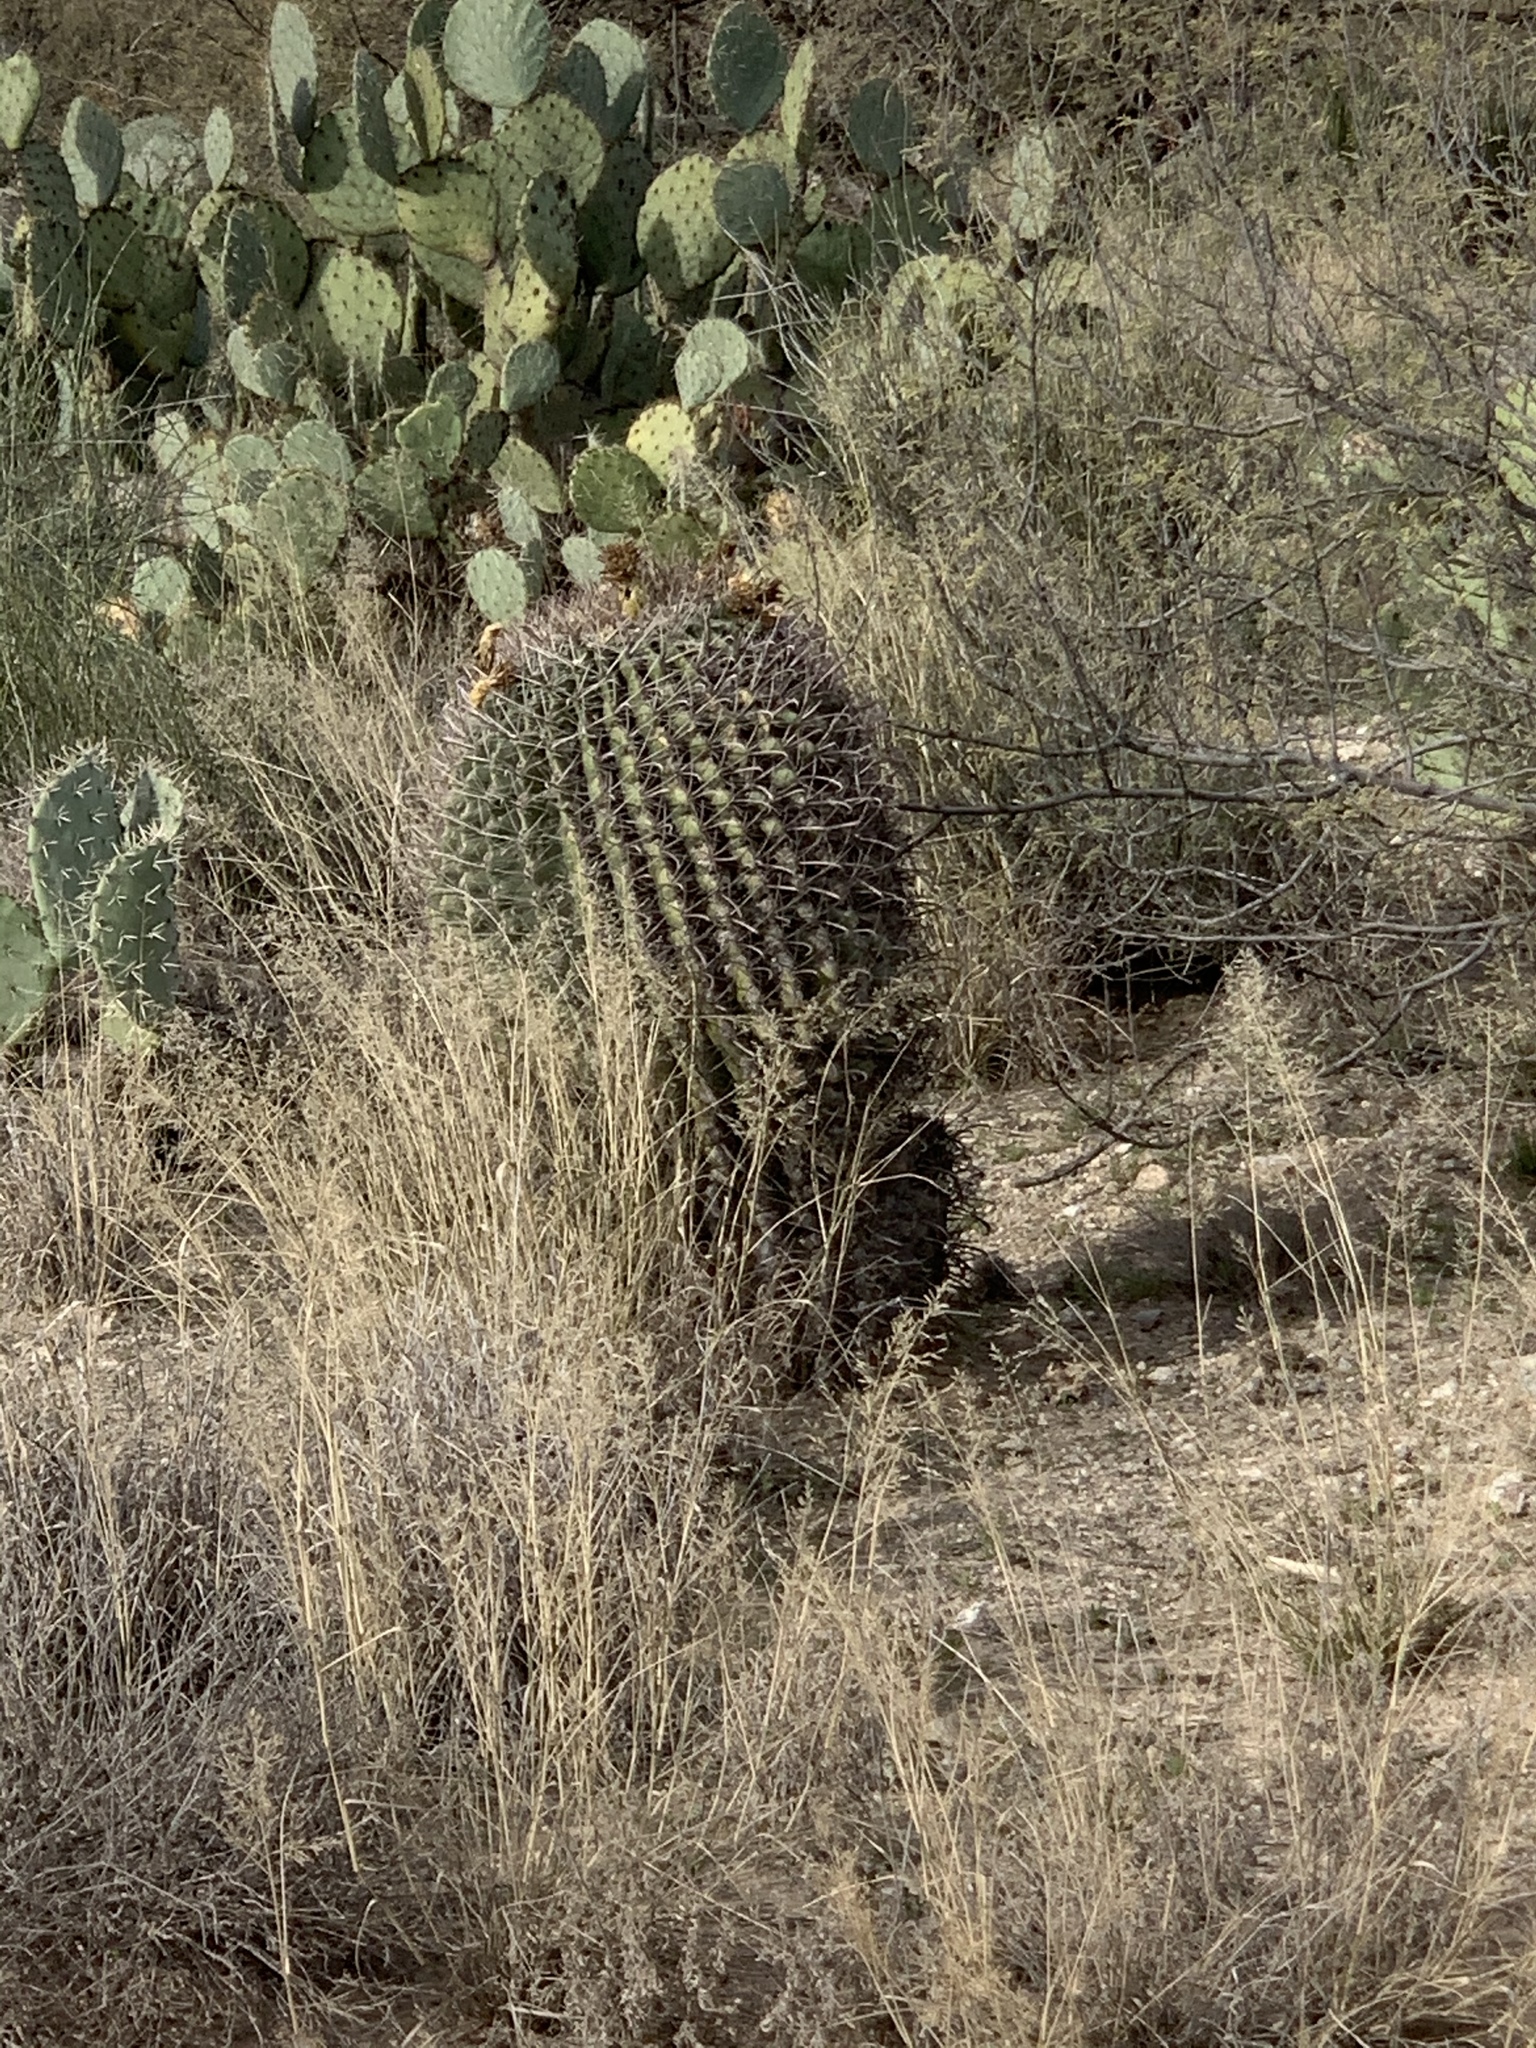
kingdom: Plantae
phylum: Tracheophyta
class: Magnoliopsida
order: Caryophyllales
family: Cactaceae
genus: Ferocactus
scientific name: Ferocactus wislizeni
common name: Candy barrel cactus
